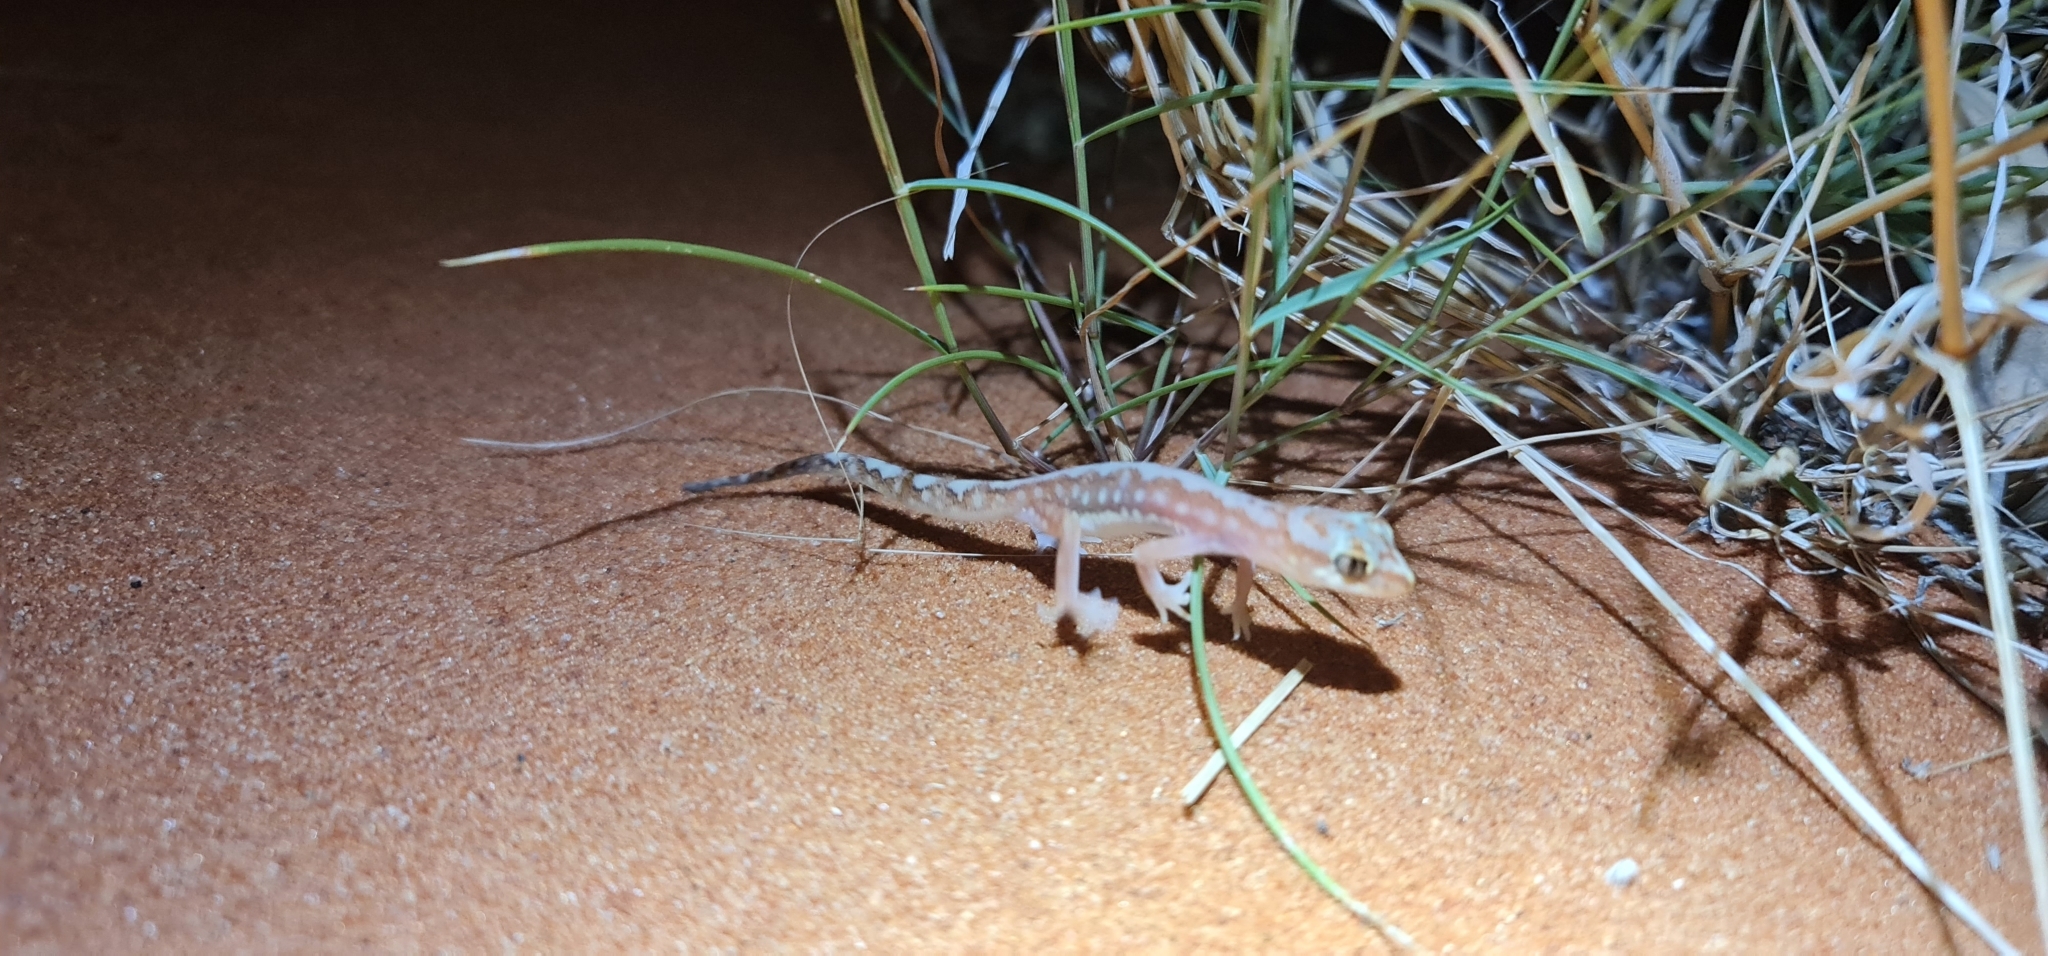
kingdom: Animalia
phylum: Chordata
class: Squamata
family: Diplodactylidae
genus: Lucasium
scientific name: Lucasium damaeum
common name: Beaded gecko
